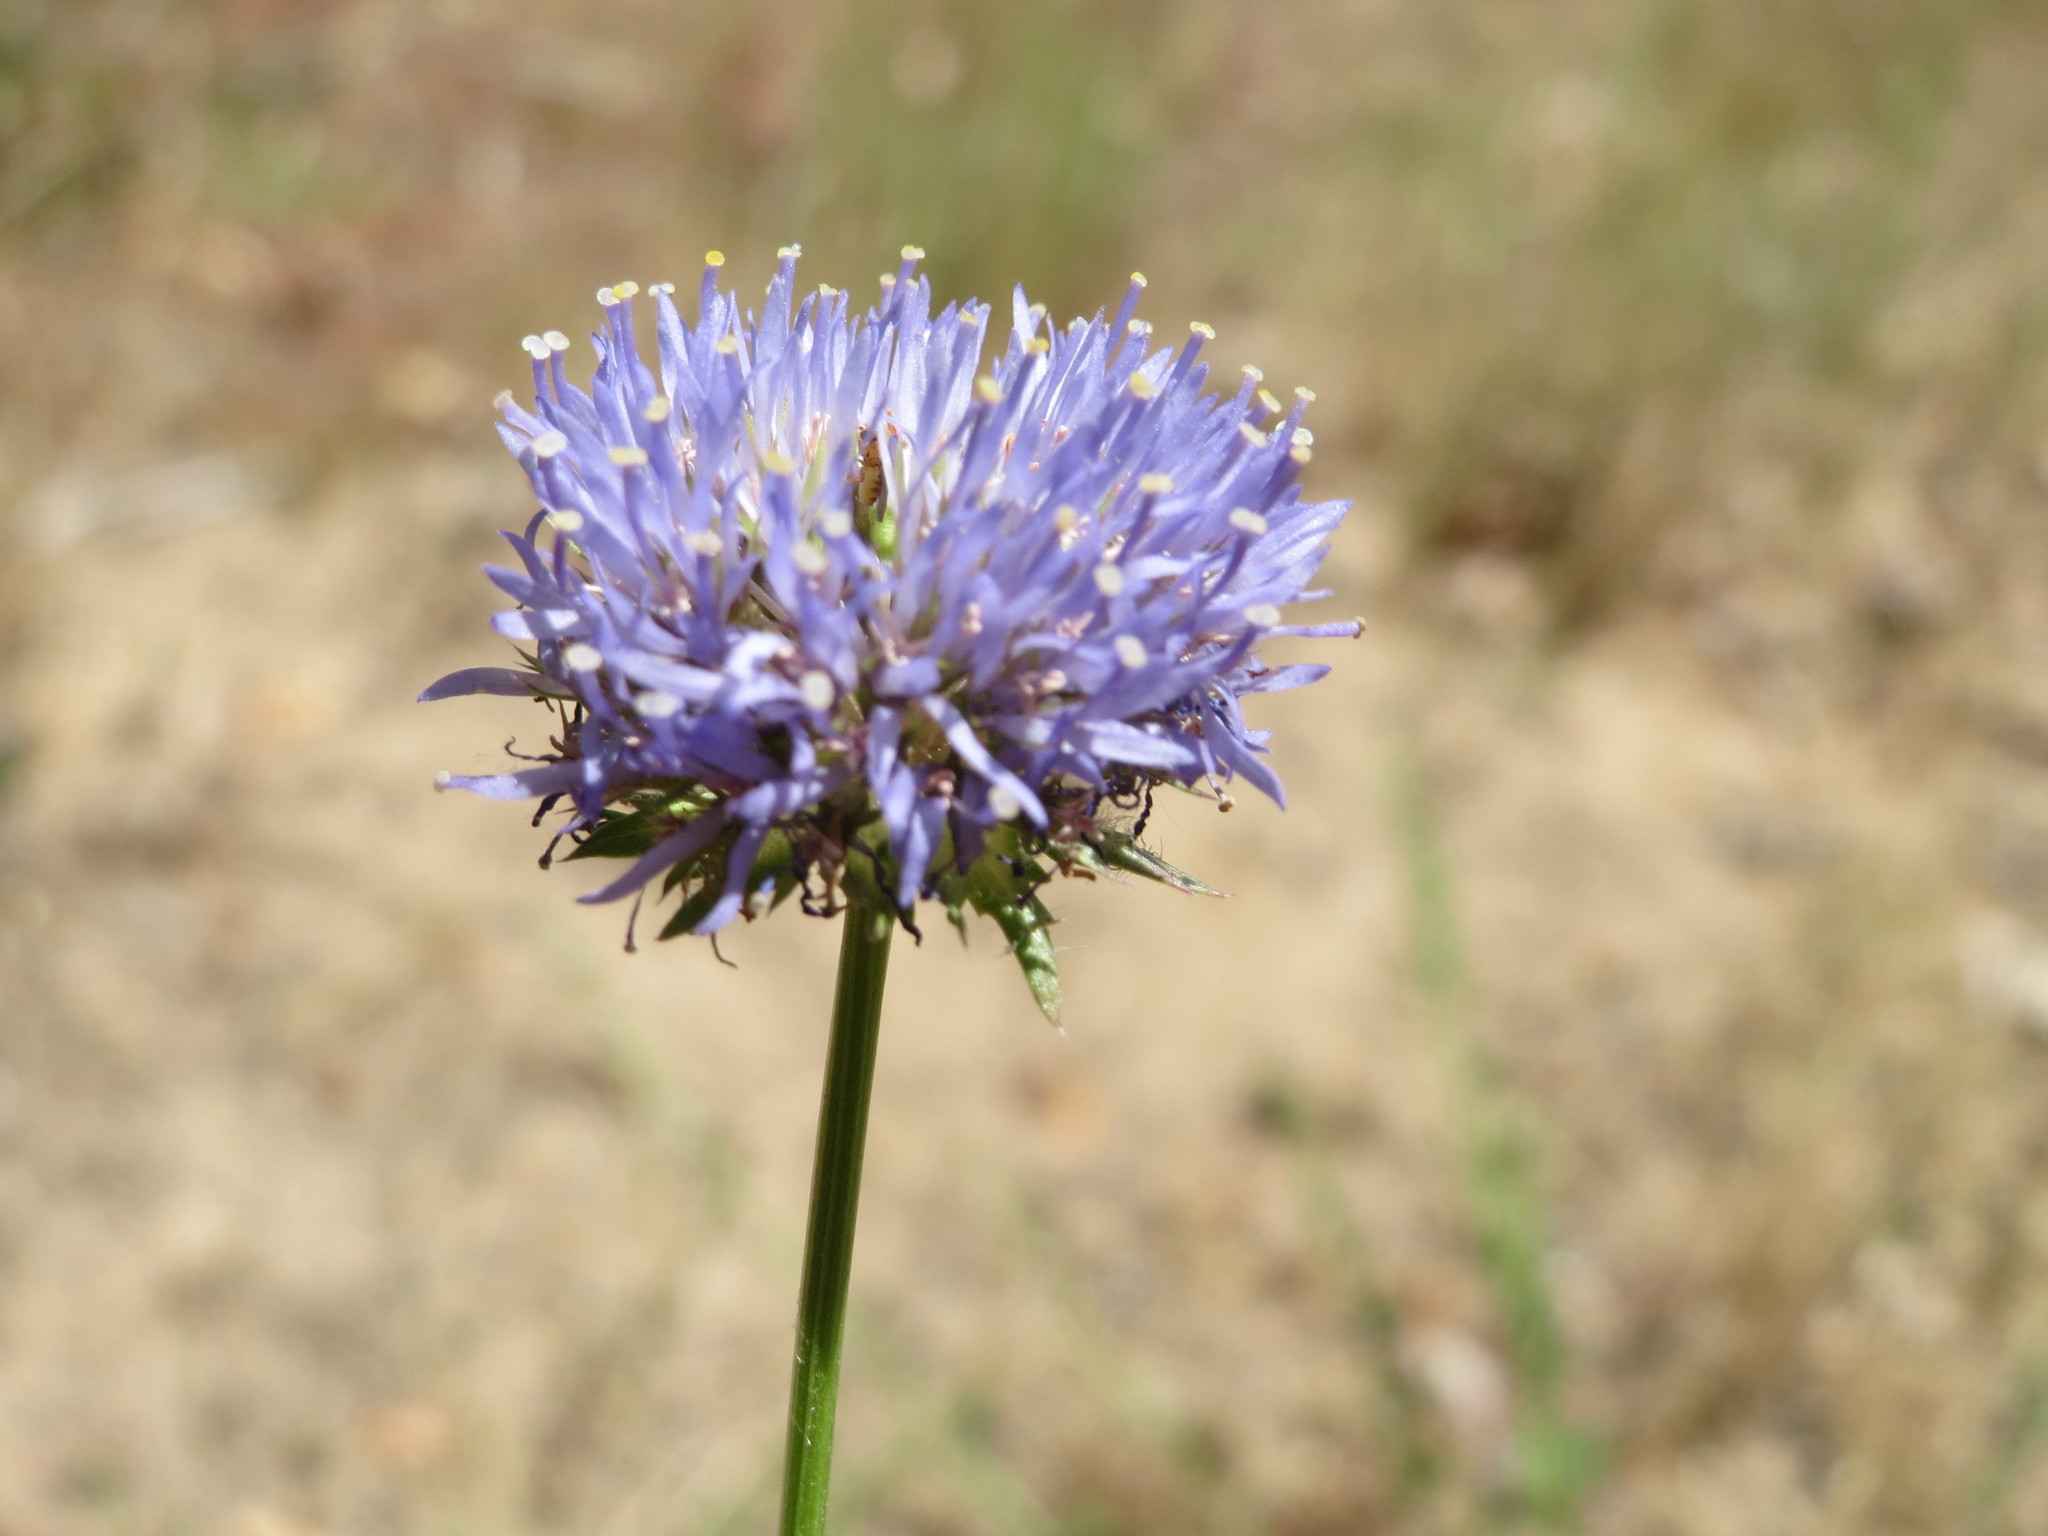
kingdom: Plantae
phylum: Tracheophyta
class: Magnoliopsida
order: Asterales
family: Campanulaceae
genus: Jasione
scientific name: Jasione montana
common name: Sheep's-bit
